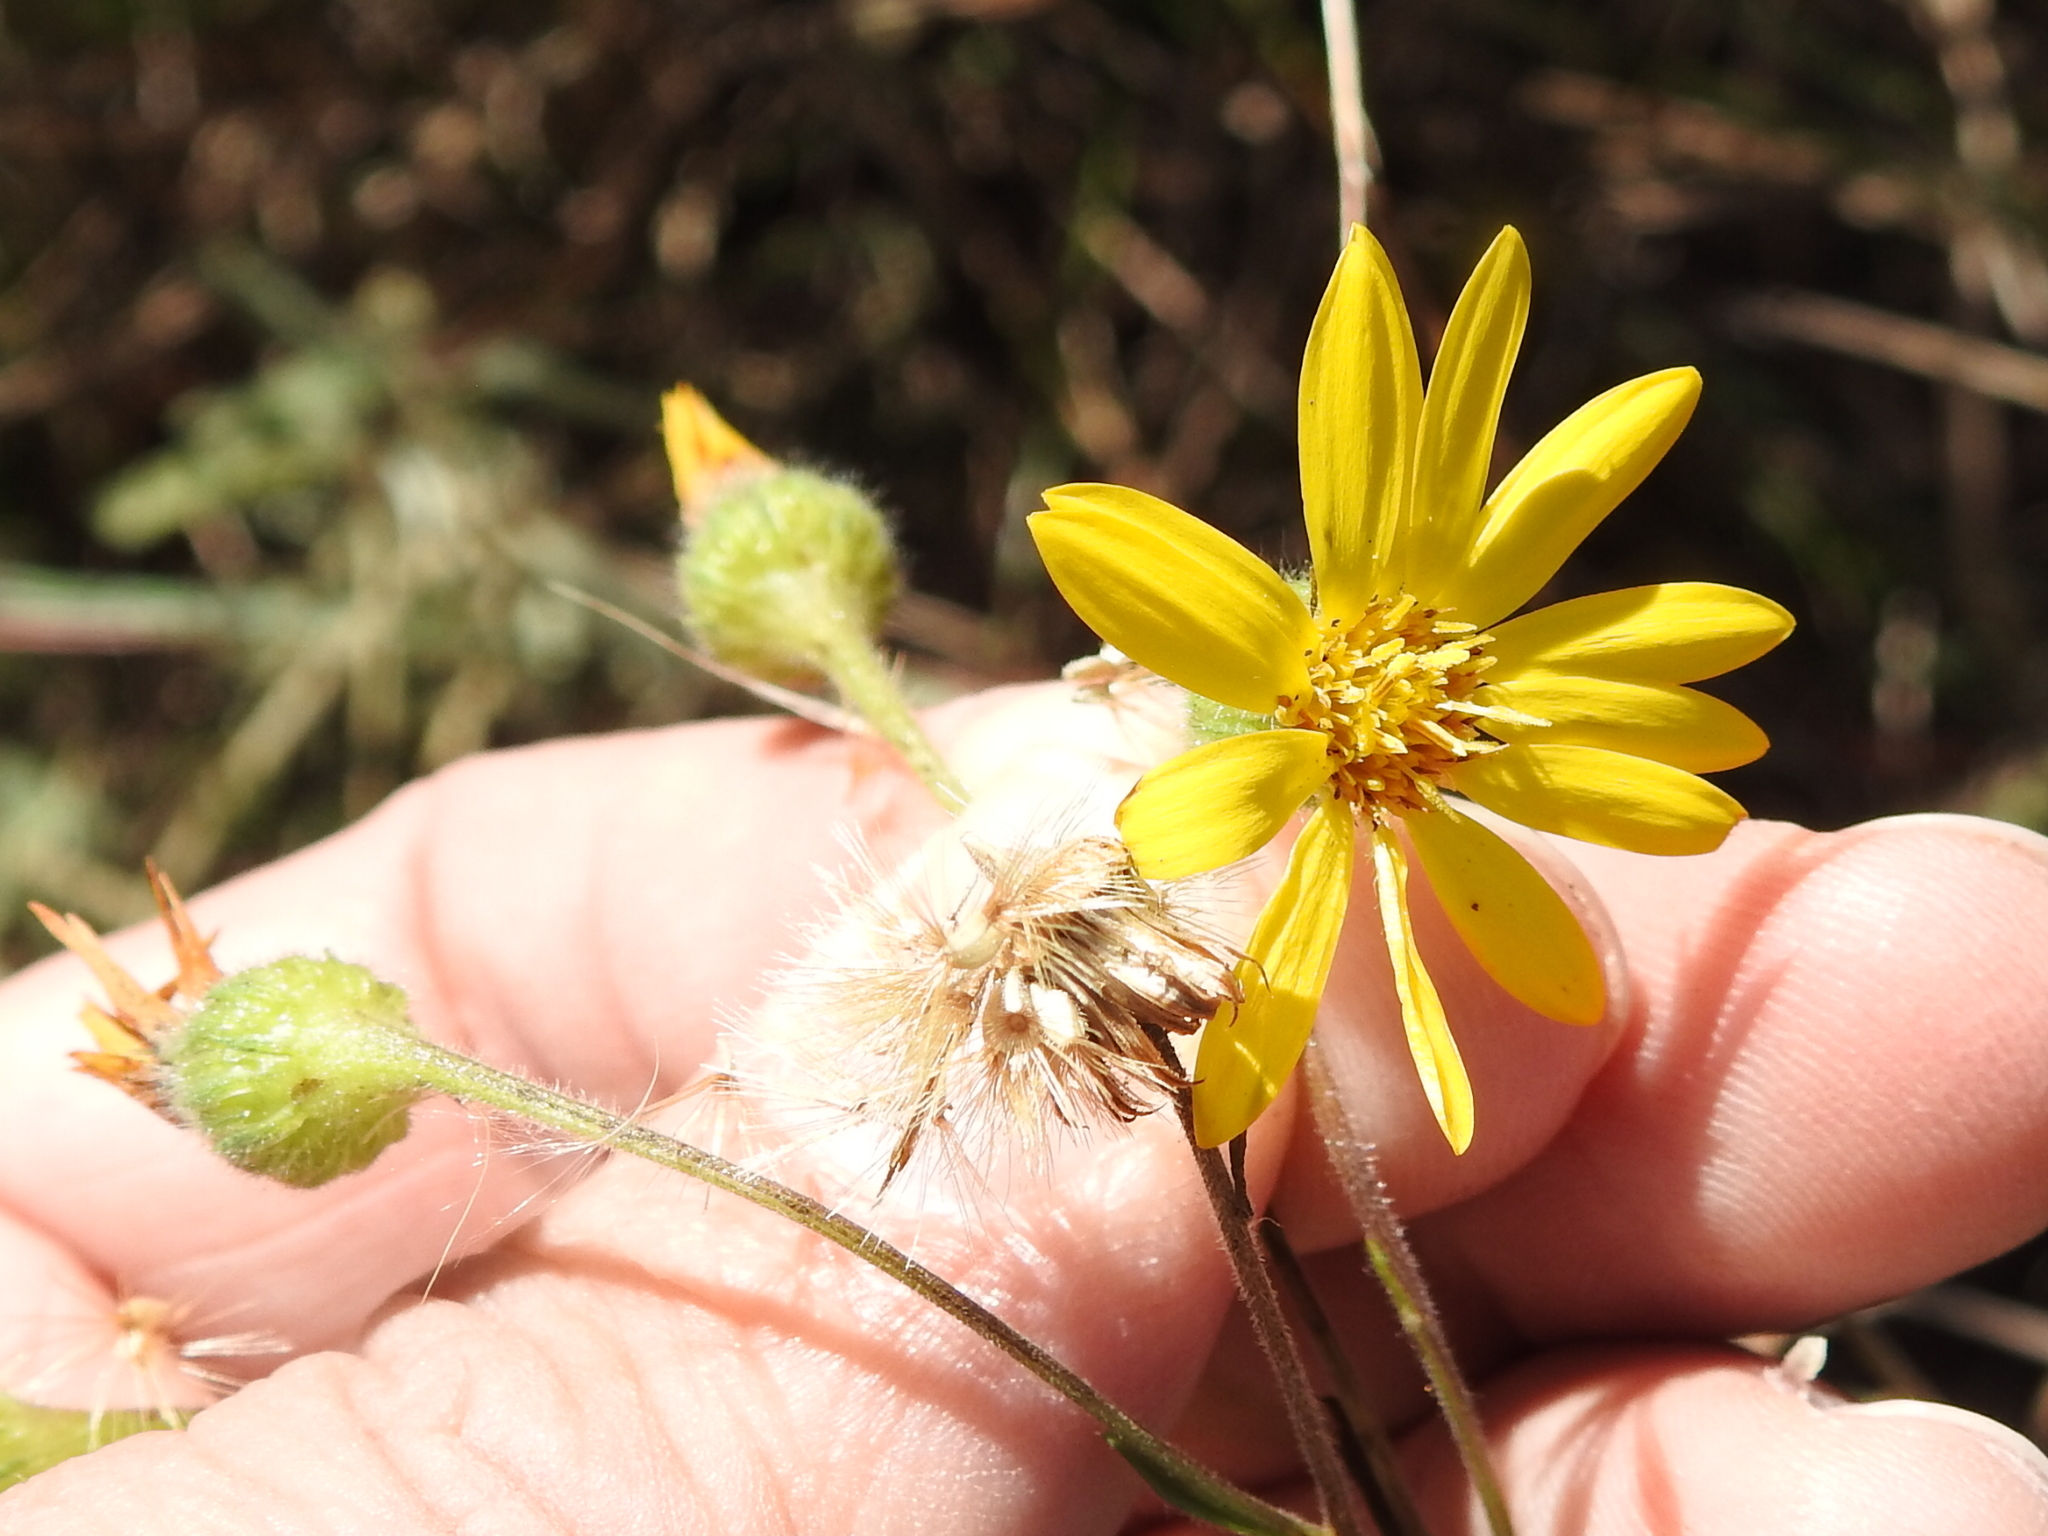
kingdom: Plantae
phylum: Tracheophyta
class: Magnoliopsida
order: Asterales
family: Asteraceae
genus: Bradburia
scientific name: Bradburia pilosa
